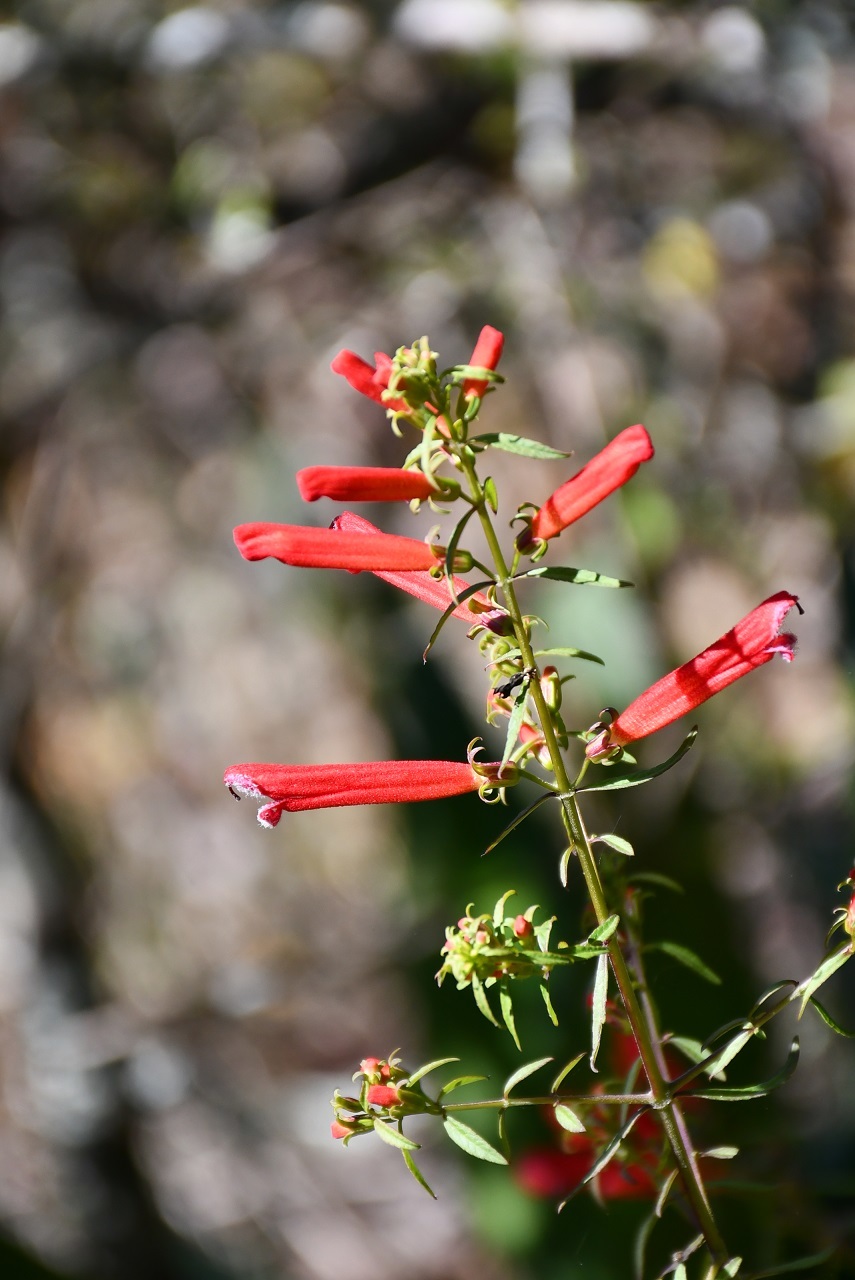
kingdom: Plantae
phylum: Tracheophyta
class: Magnoliopsida
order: Lamiales
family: Orobanchaceae
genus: Lamourouxia
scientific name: Lamourouxia lanceolata
